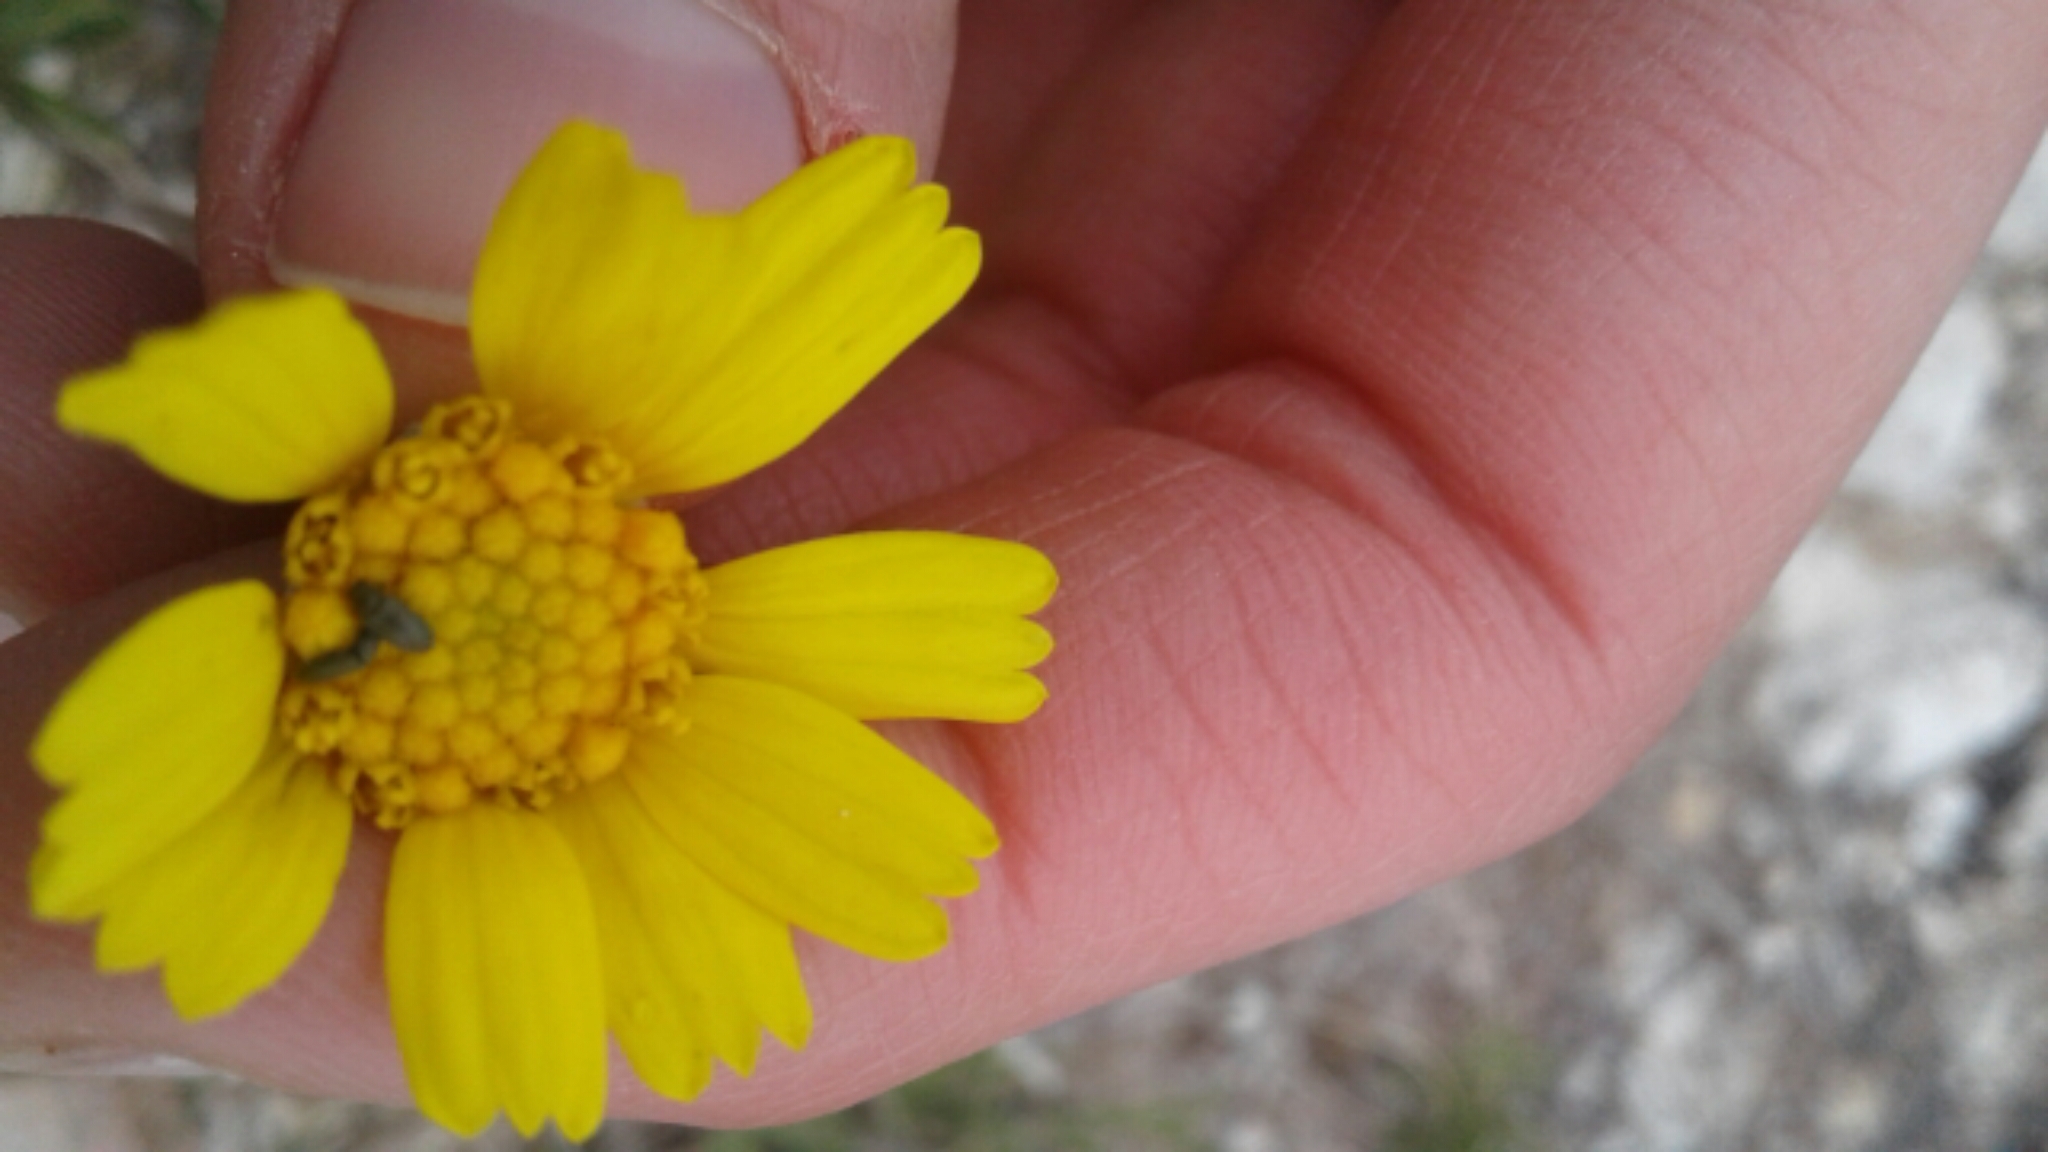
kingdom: Plantae
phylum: Tracheophyta
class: Magnoliopsida
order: Asterales
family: Asteraceae
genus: Tetraneuris
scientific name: Tetraneuris scaposa
